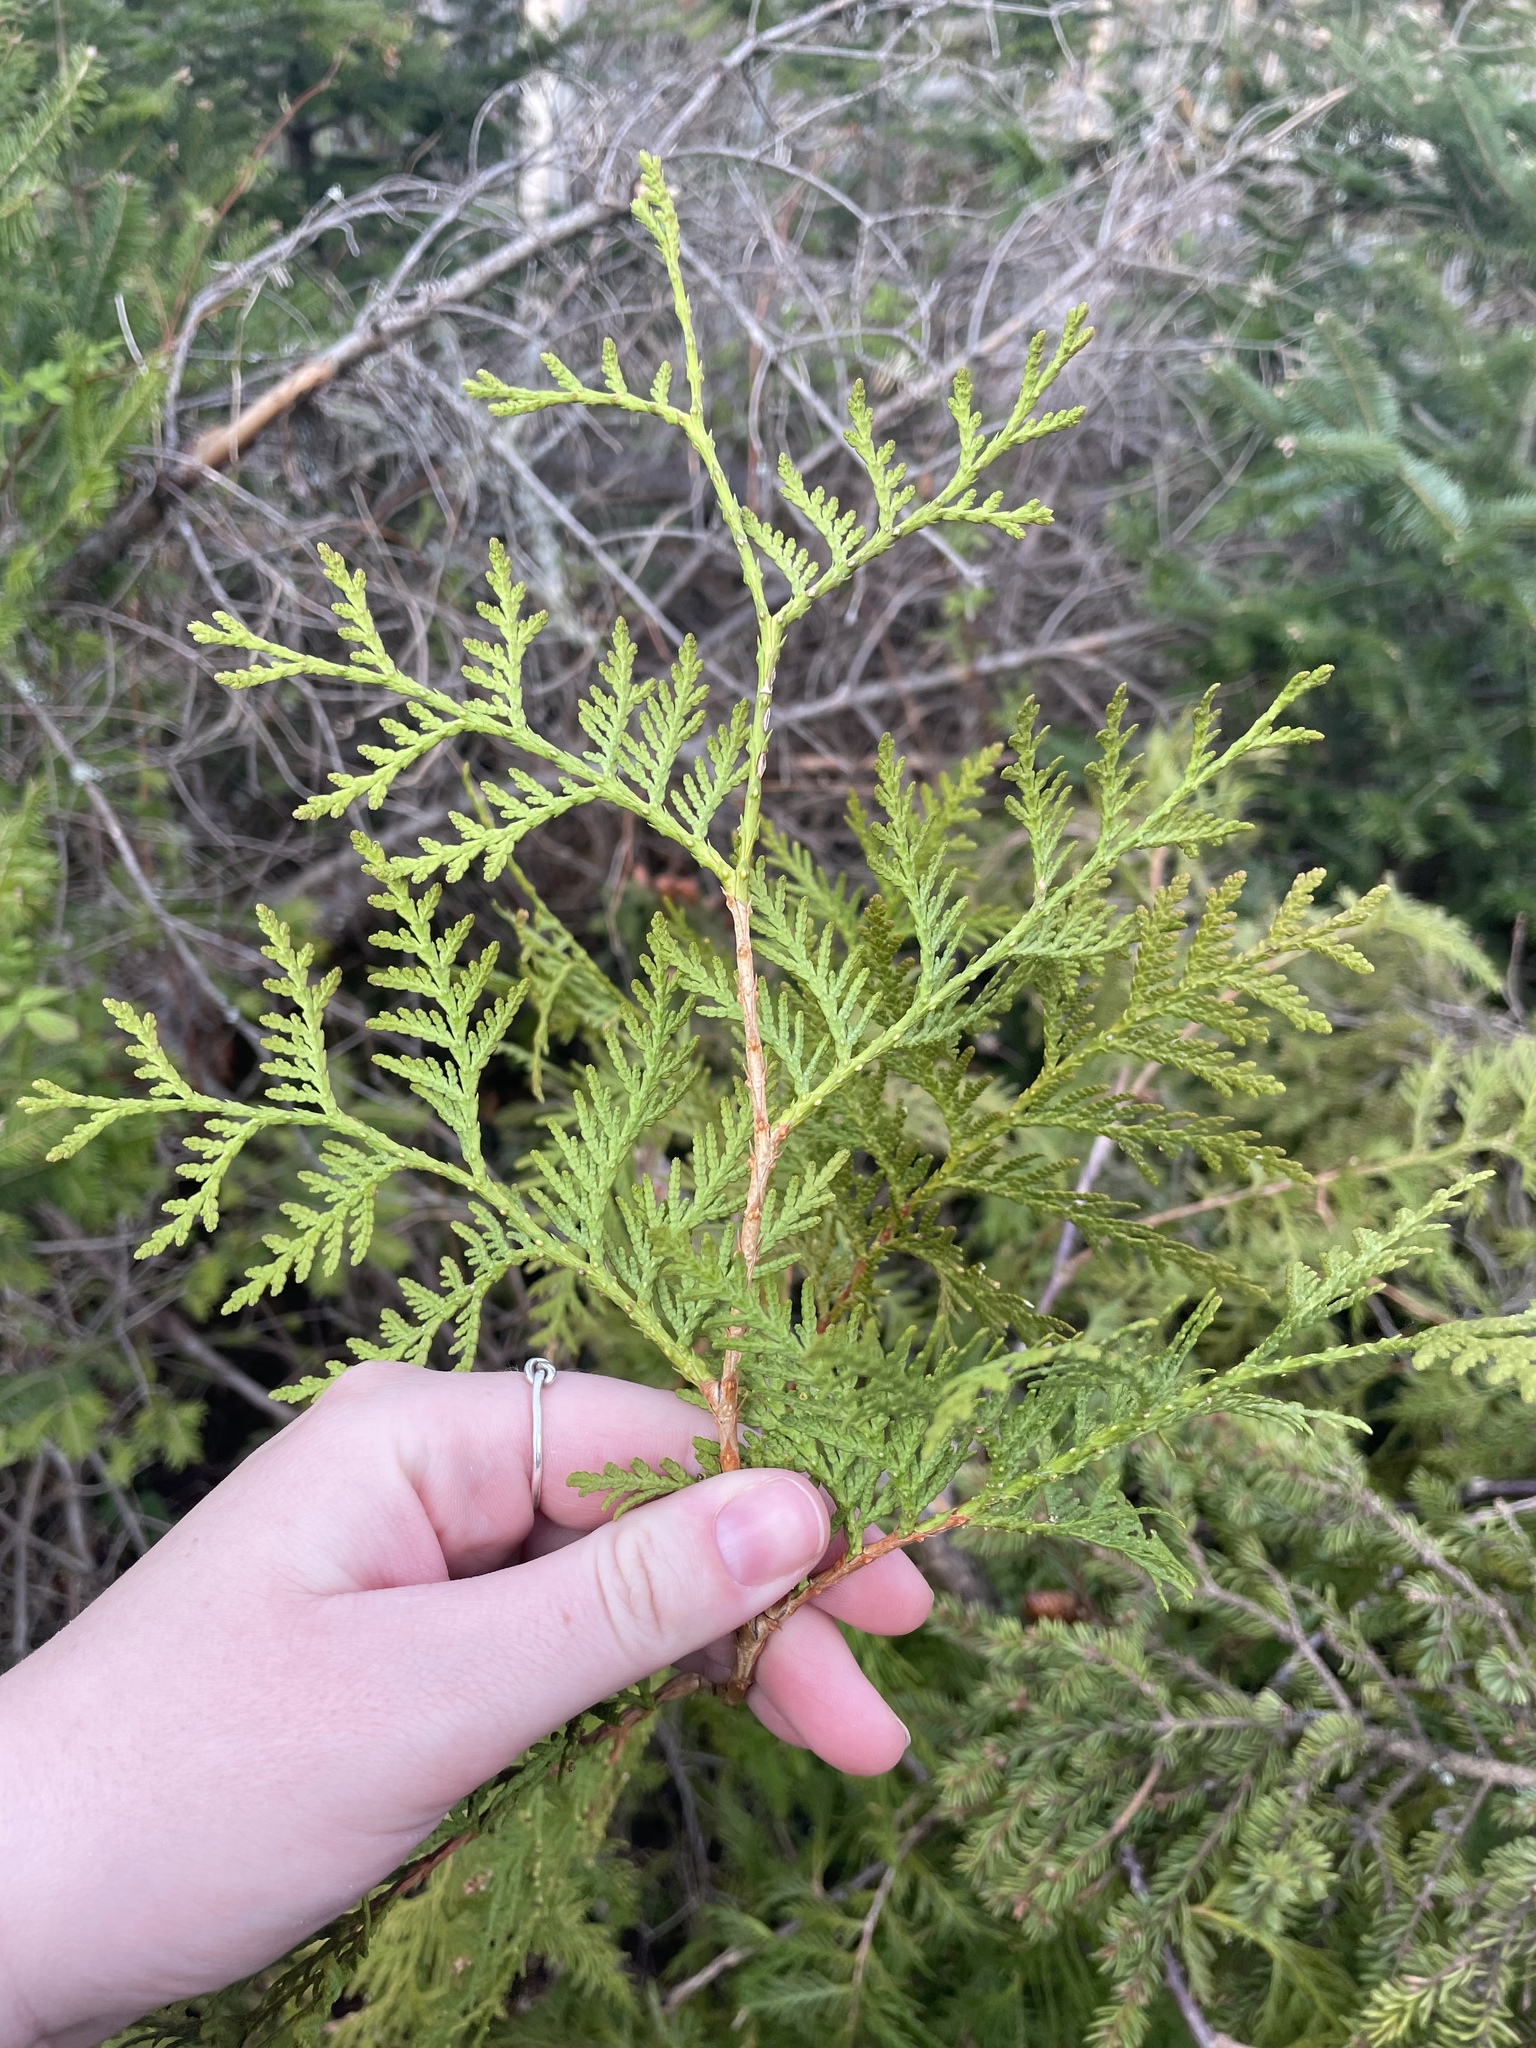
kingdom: Plantae
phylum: Tracheophyta
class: Pinopsida
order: Pinales
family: Cupressaceae
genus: Thuja
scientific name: Thuja occidentalis
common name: Northern white-cedar
